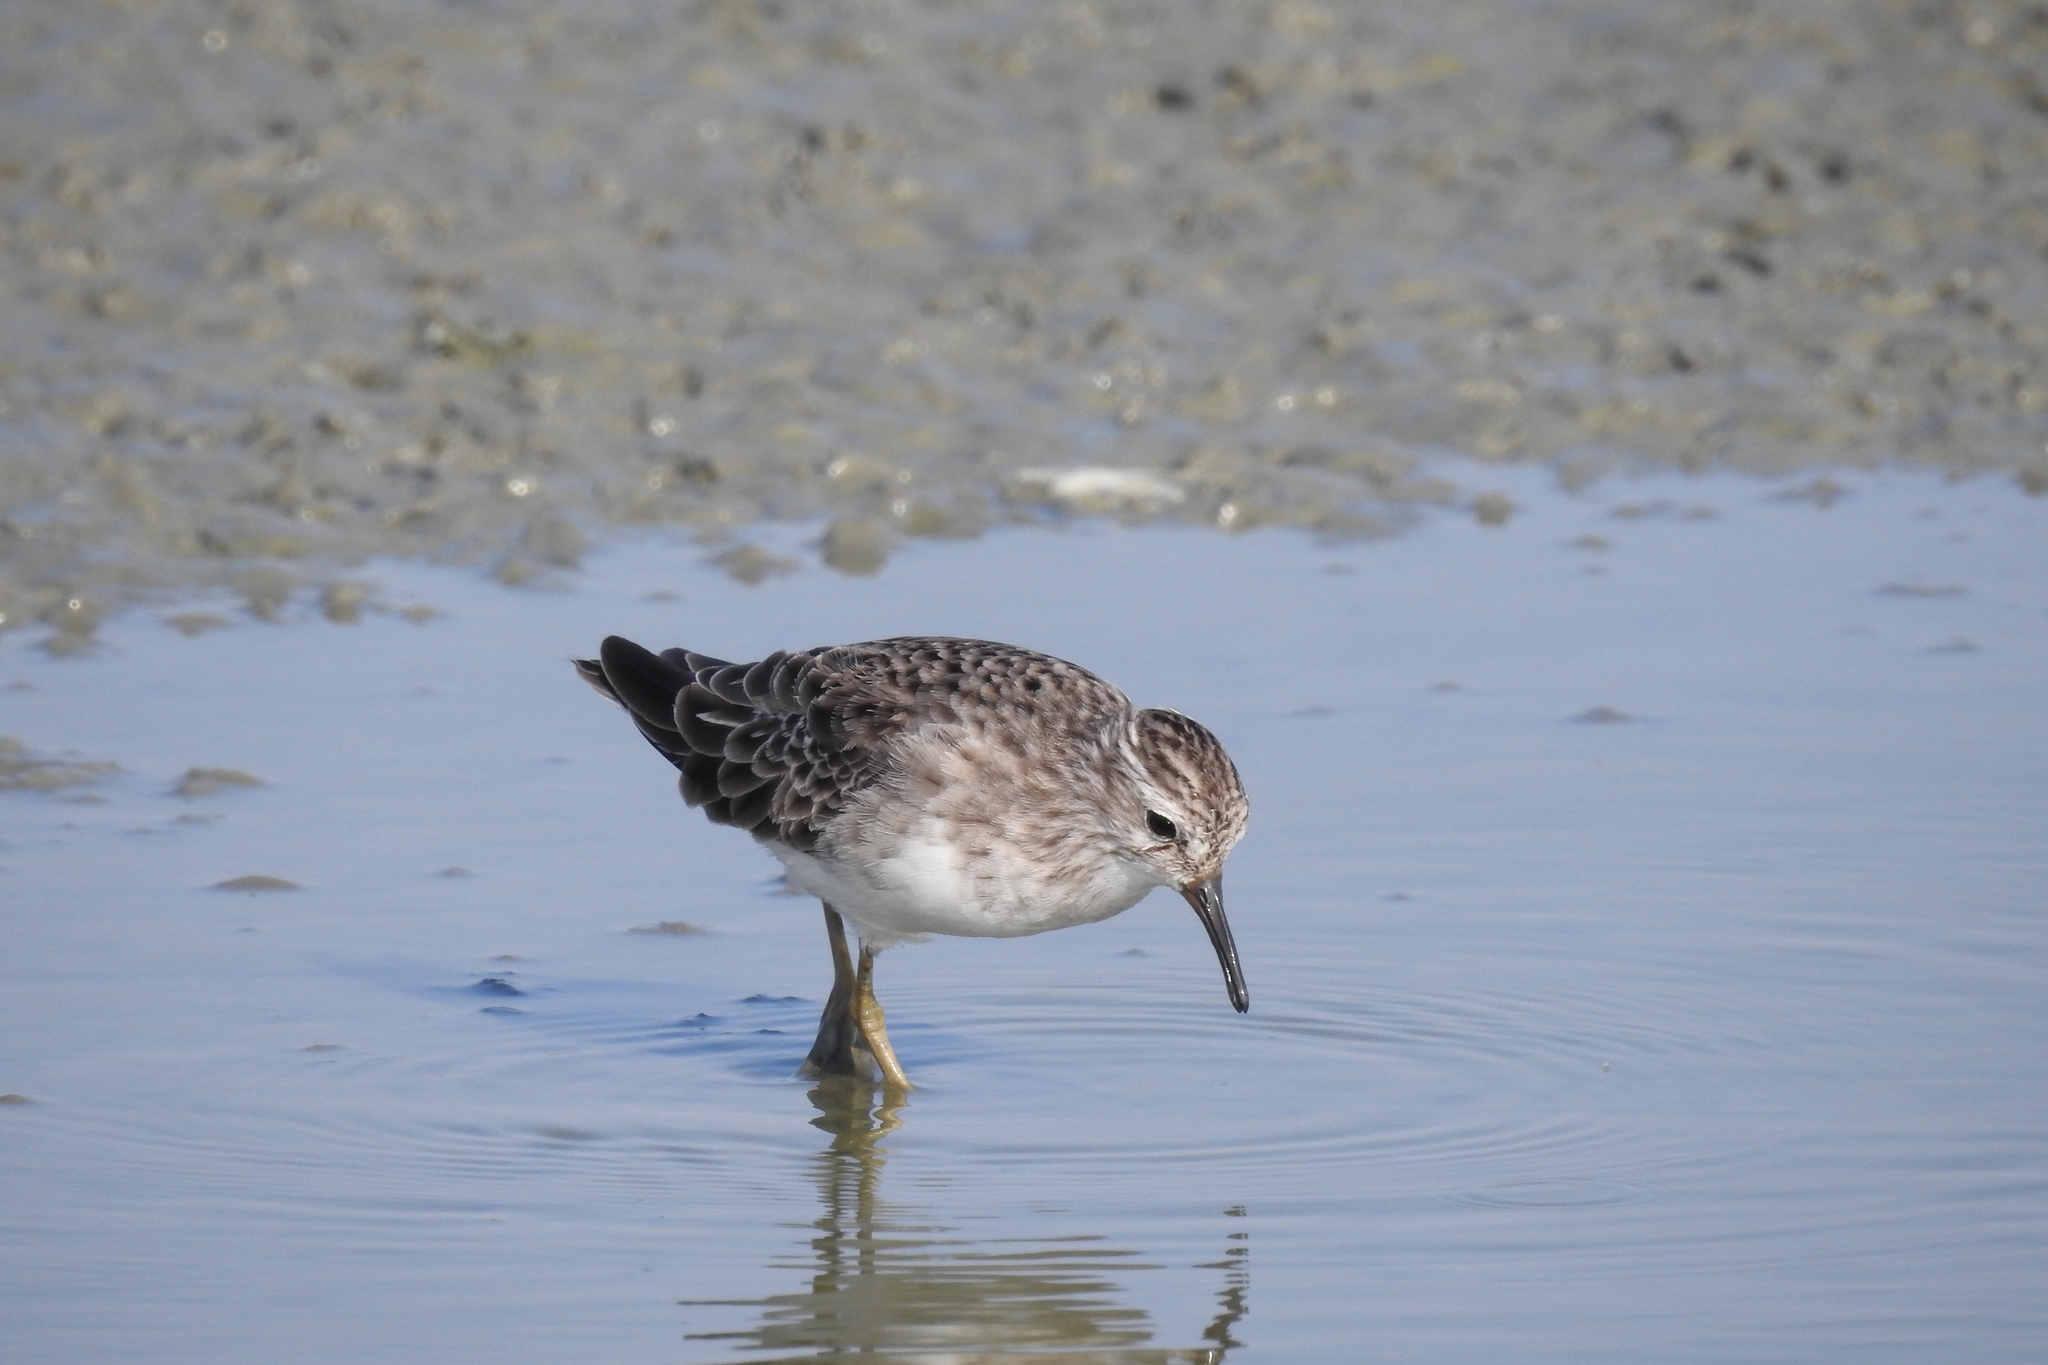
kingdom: Animalia
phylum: Chordata
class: Aves
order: Charadriiformes
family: Scolopacidae
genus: Calidris
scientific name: Calidris subminuta
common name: Long-toed stint
